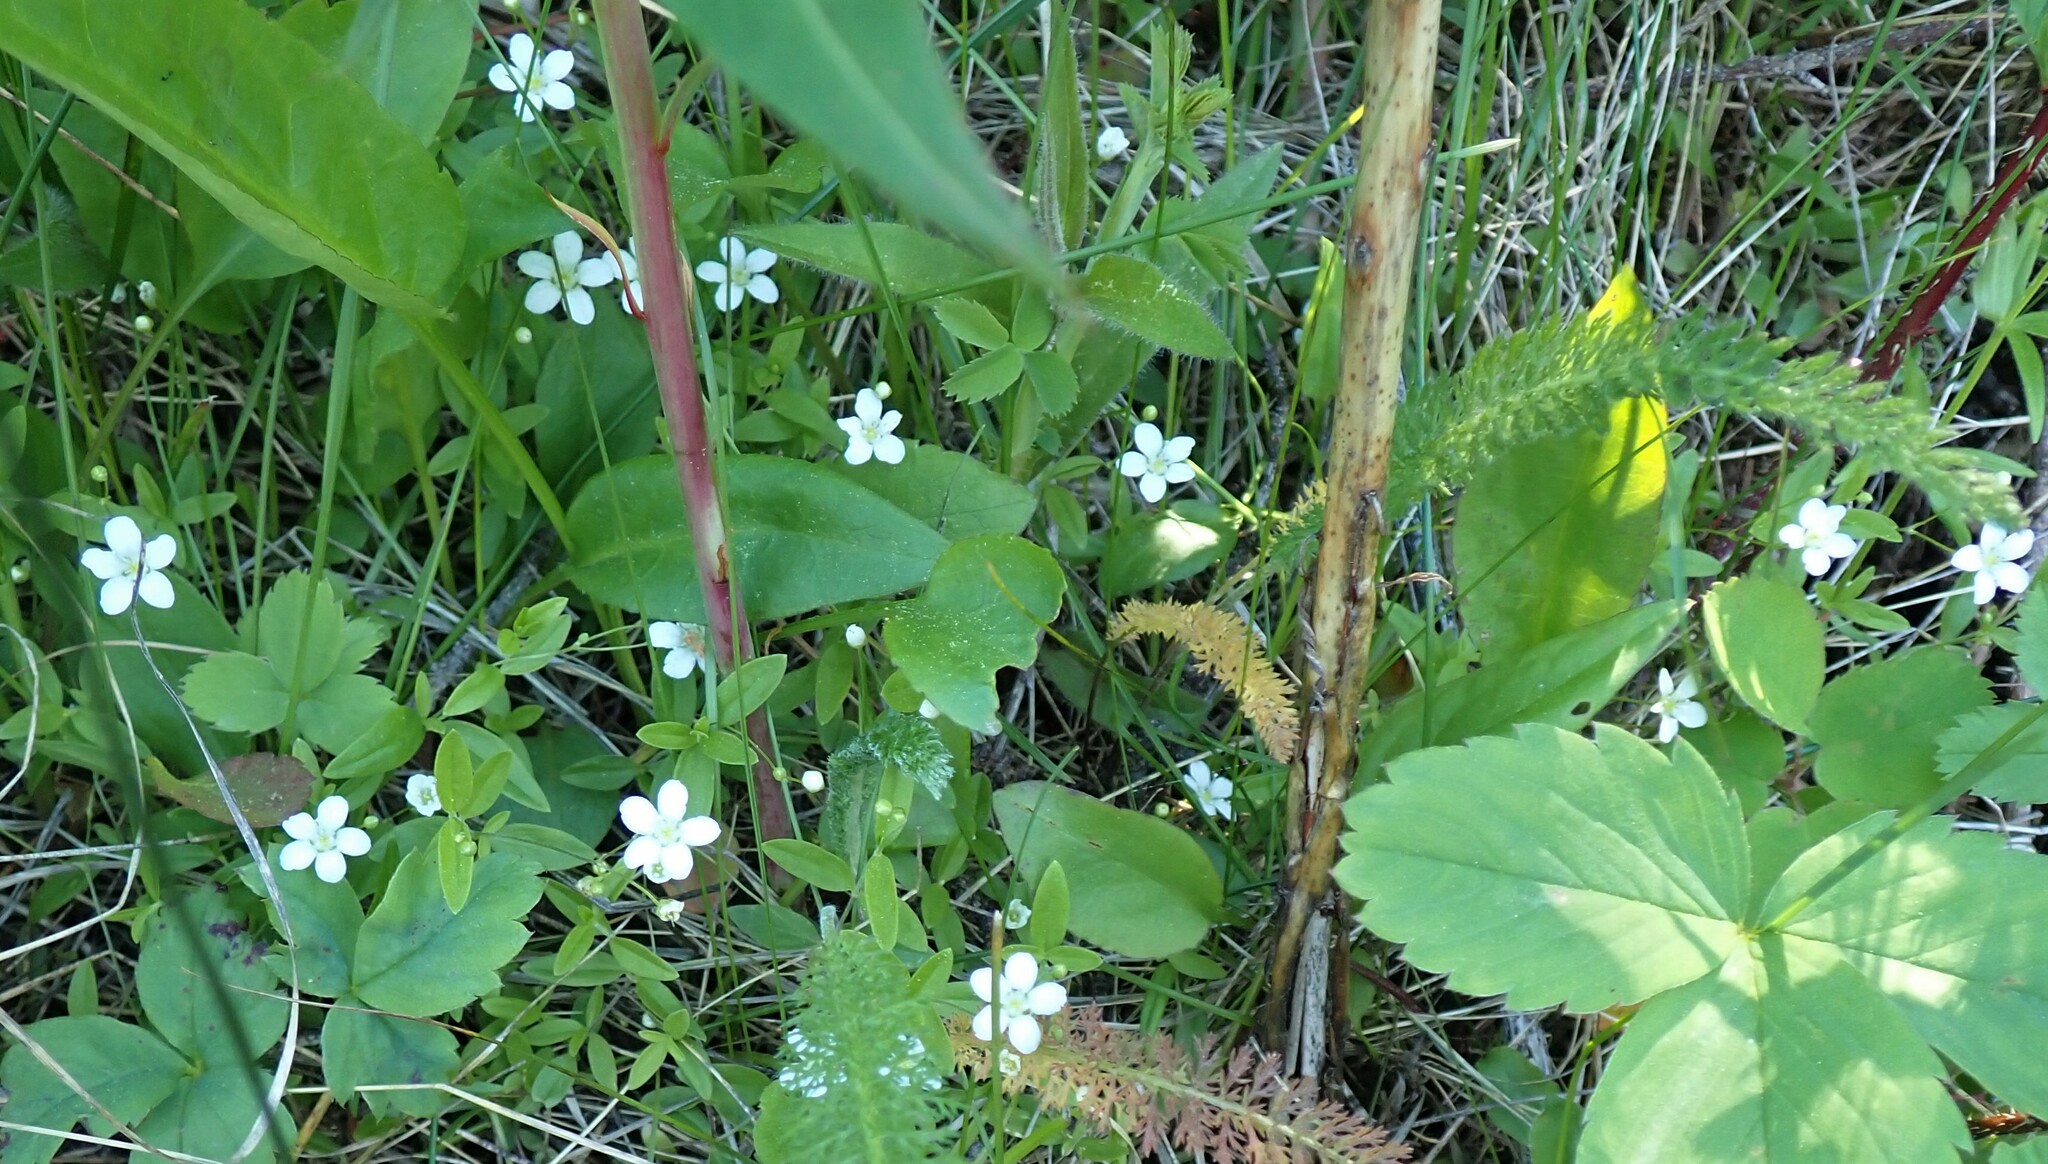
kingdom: Plantae
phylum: Tracheophyta
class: Magnoliopsida
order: Caryophyllales
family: Caryophyllaceae
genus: Moehringia
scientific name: Moehringia lateriflora
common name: Blunt-leaved sandwort
